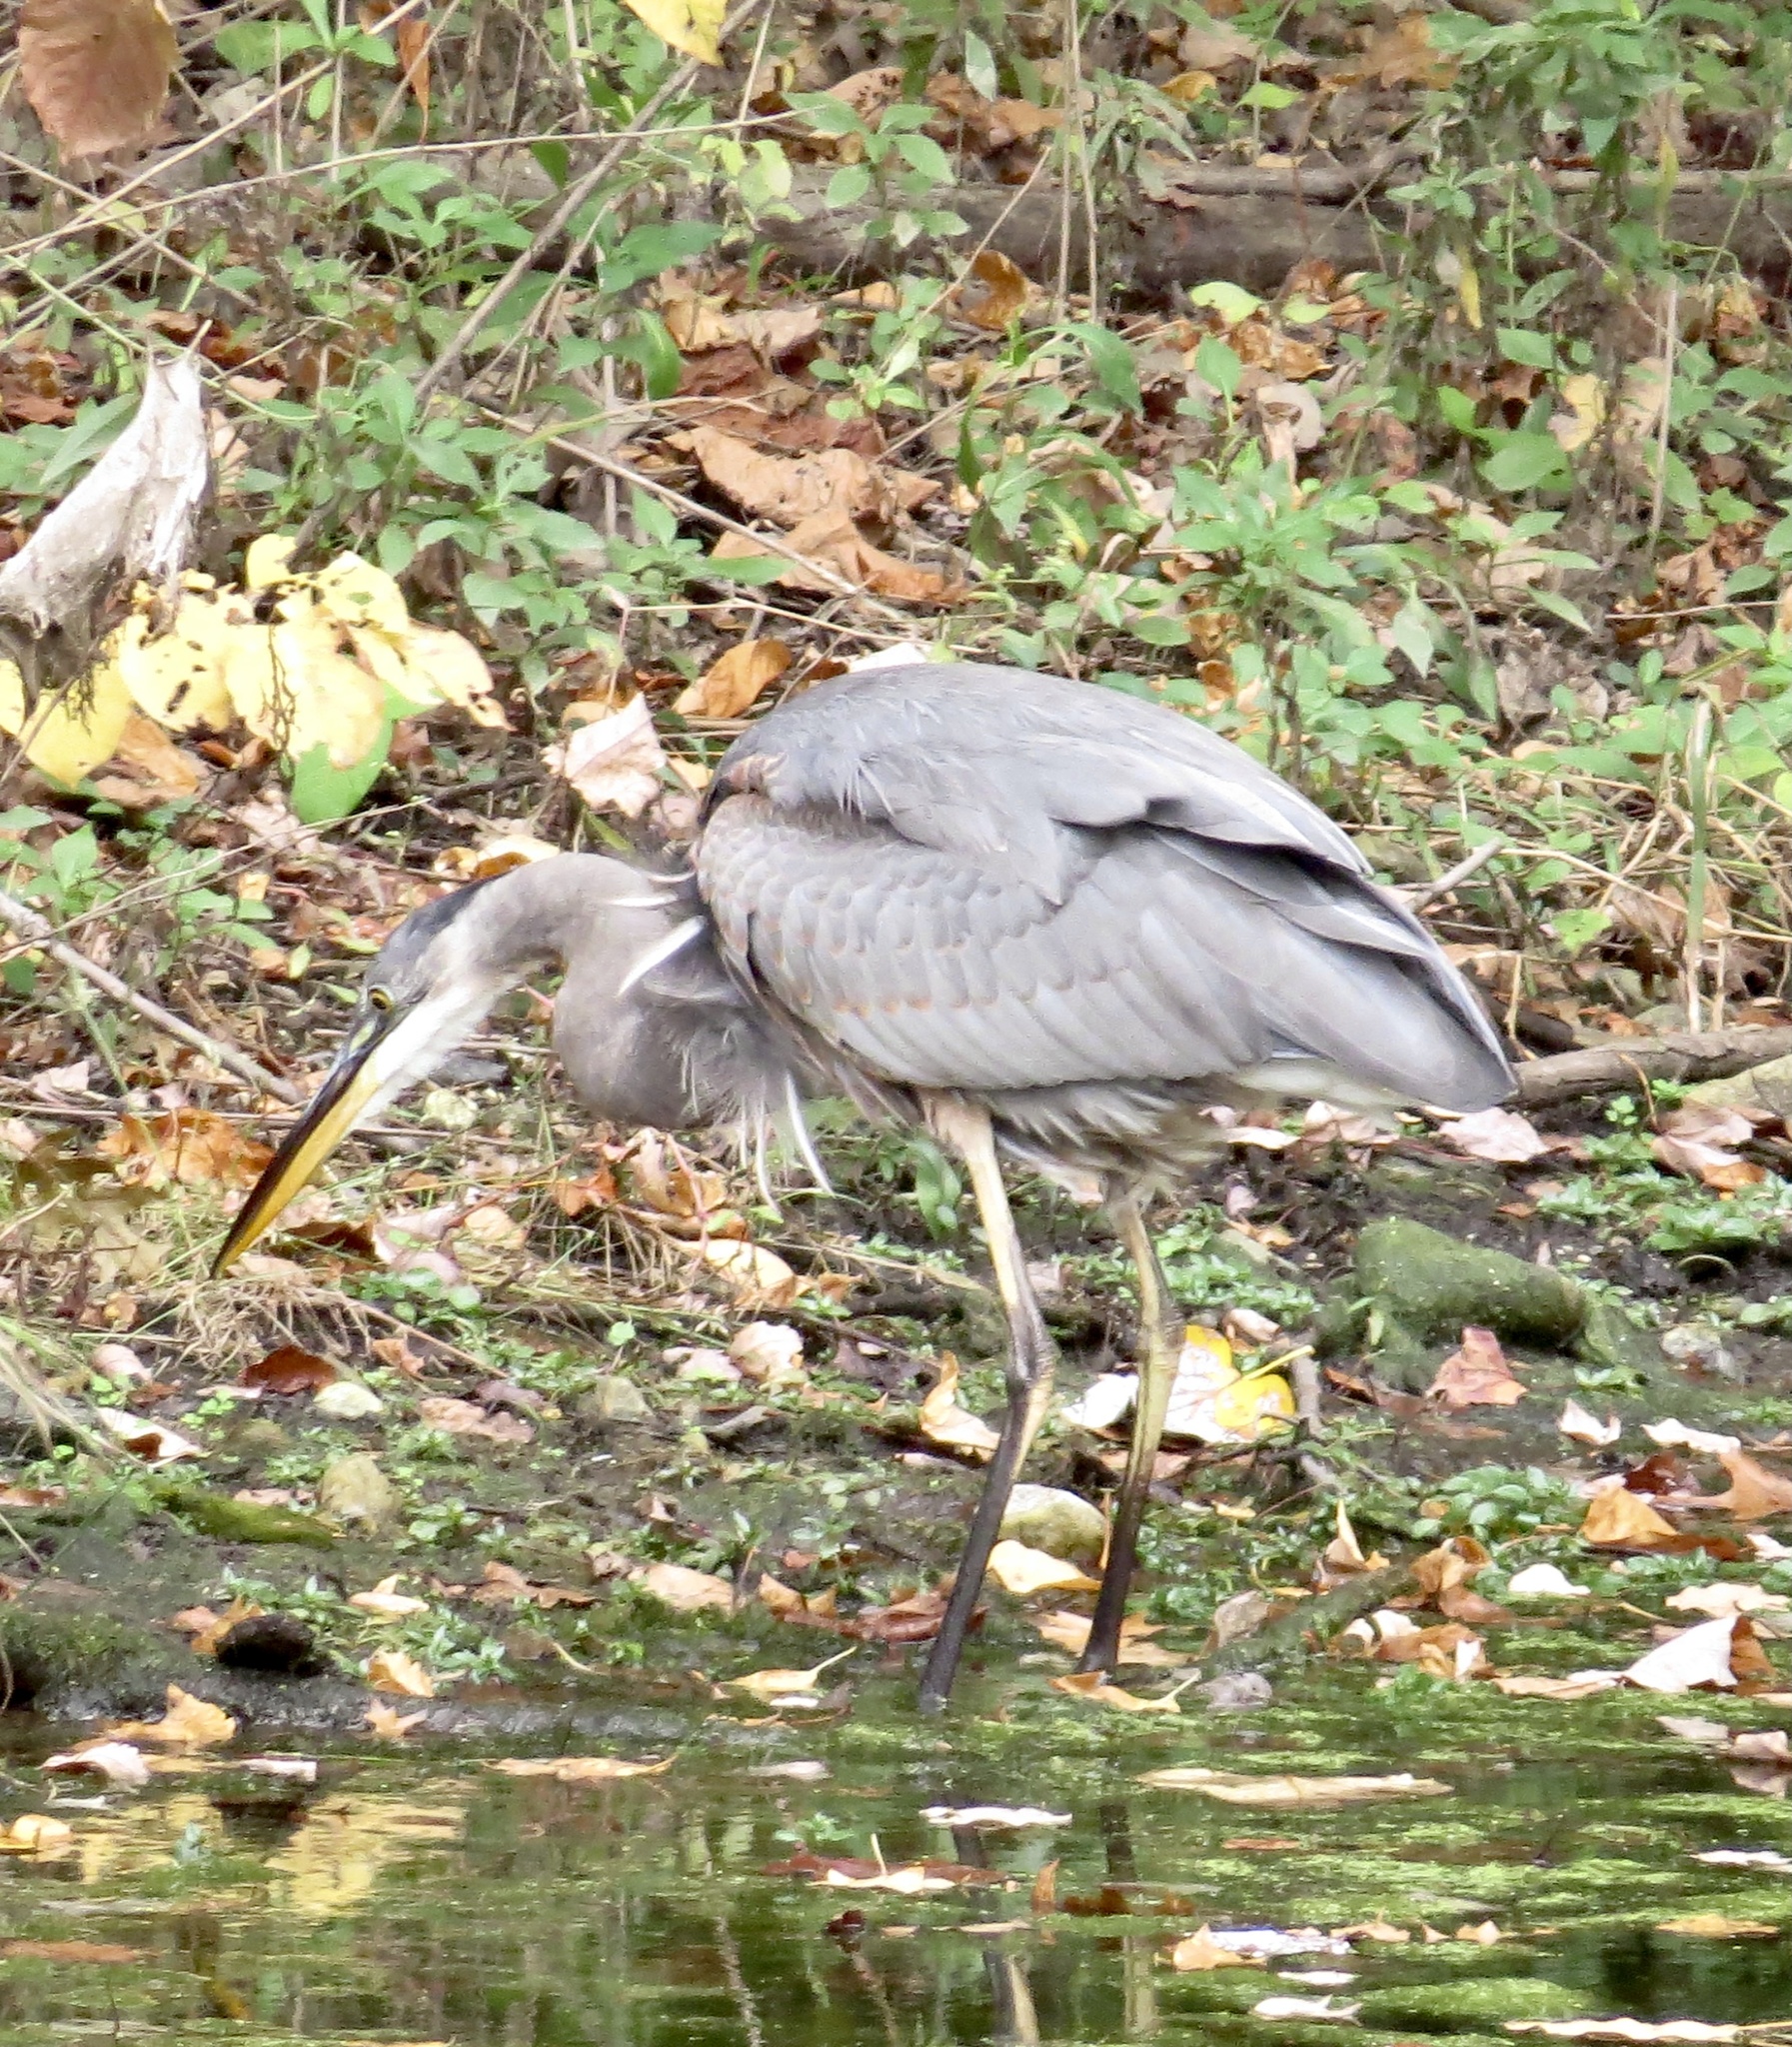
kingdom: Animalia
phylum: Chordata
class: Aves
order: Pelecaniformes
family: Ardeidae
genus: Ardea
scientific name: Ardea herodias
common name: Great blue heron
